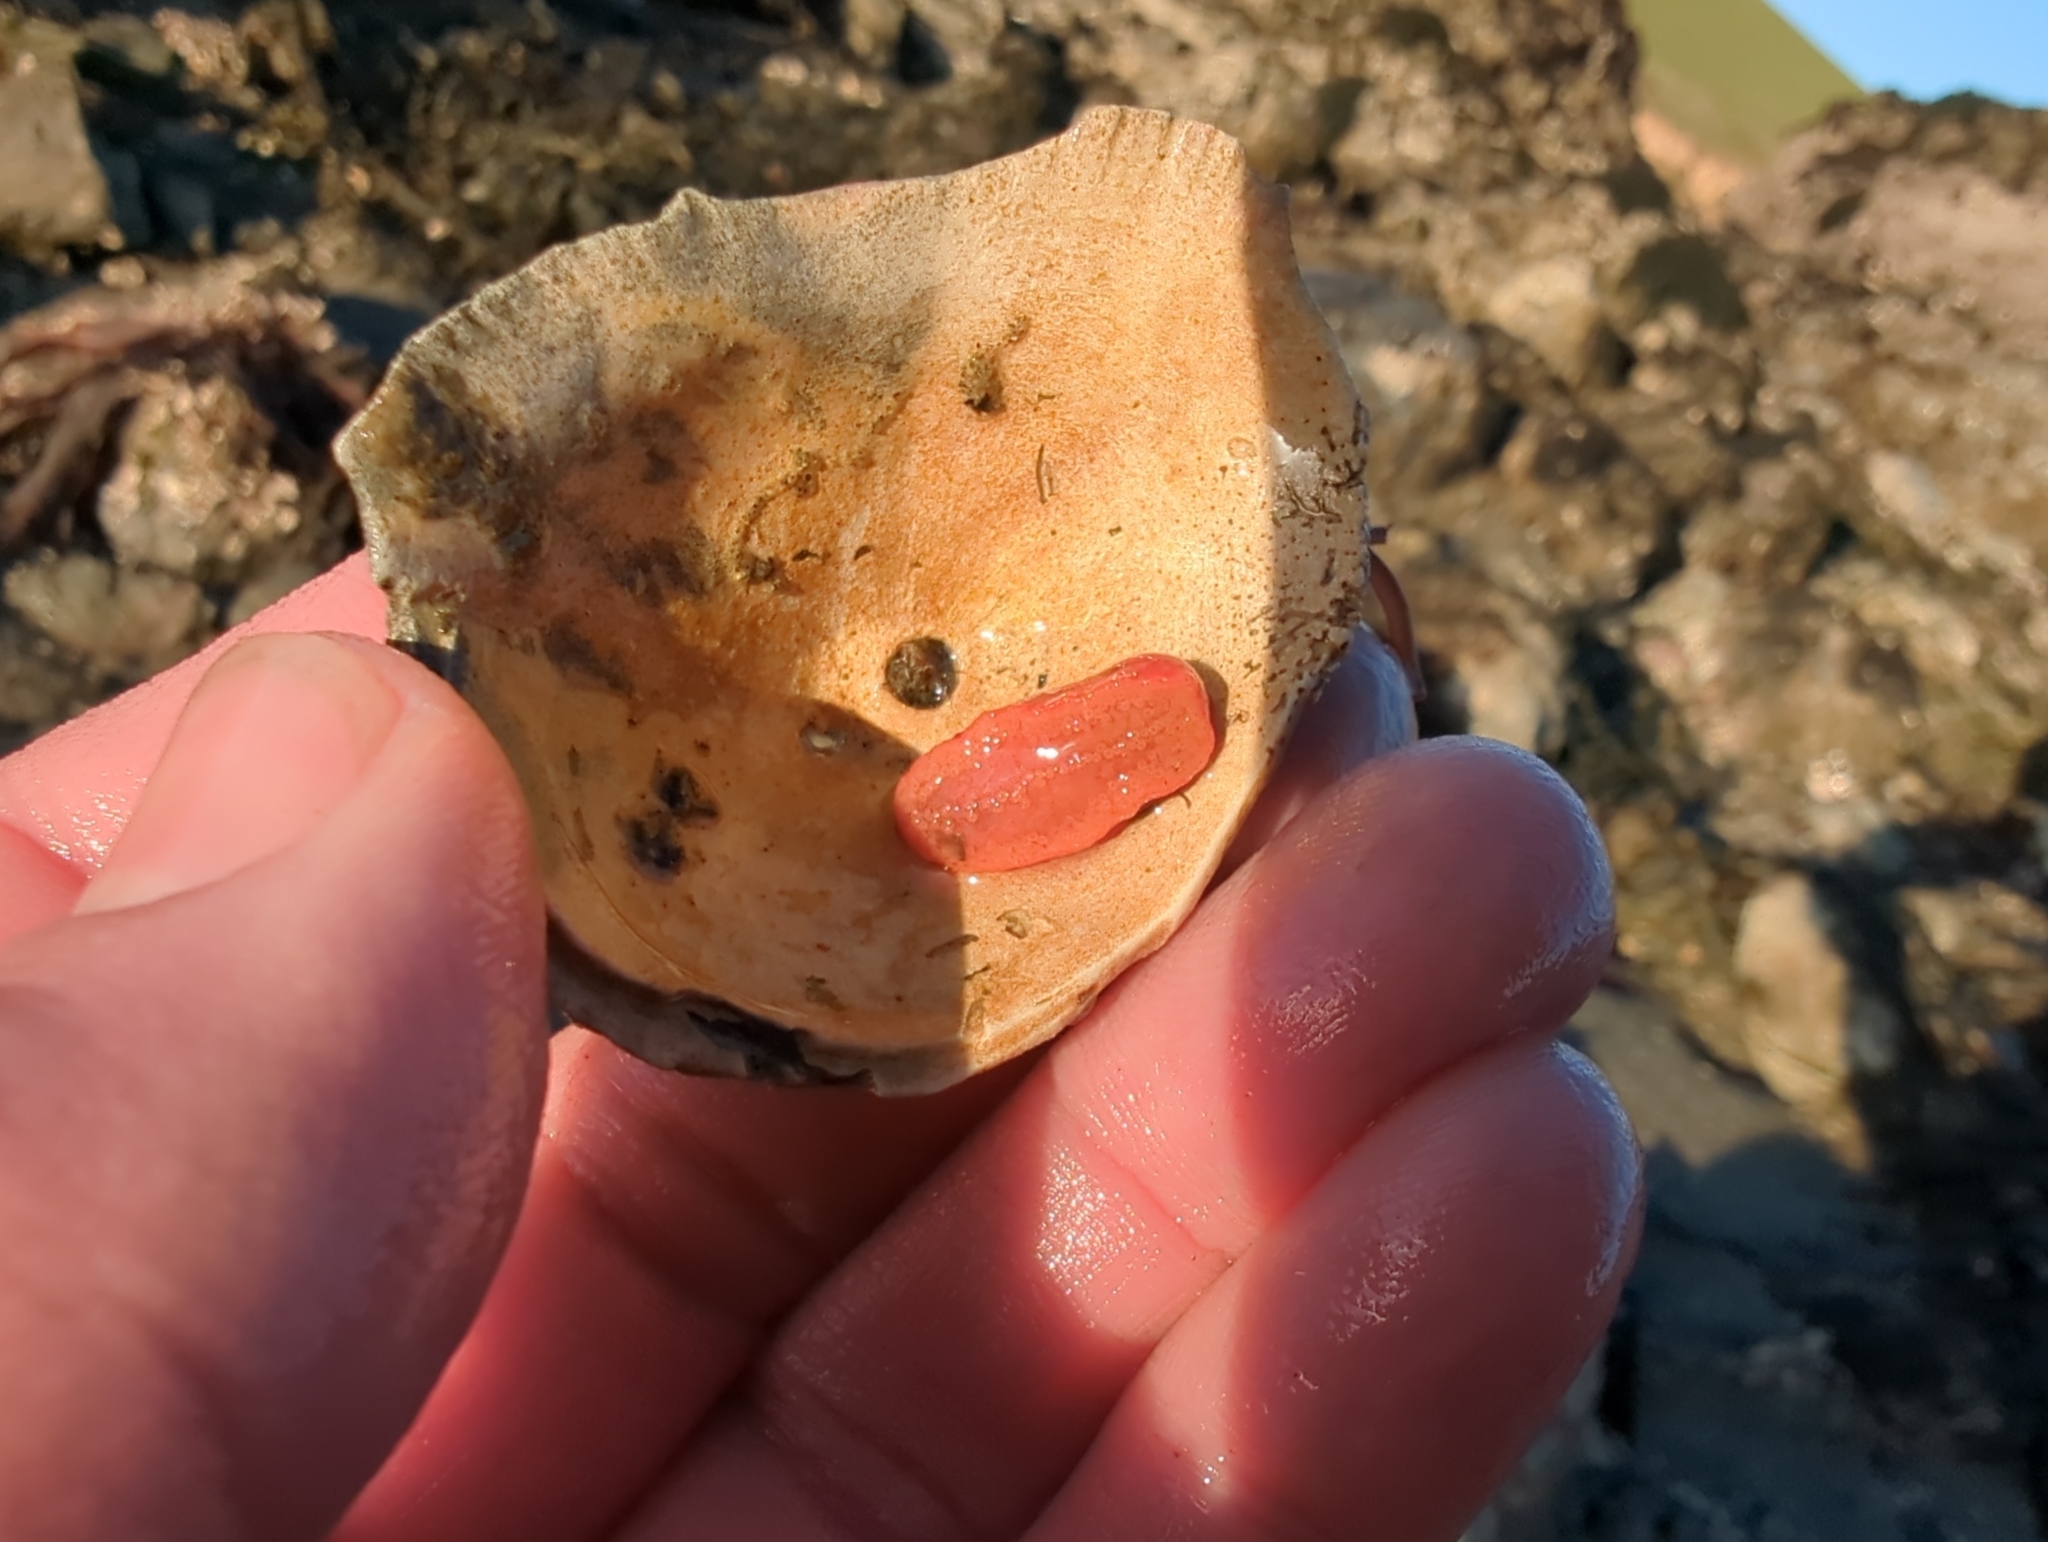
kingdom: Animalia
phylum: Echinodermata
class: Holothuroidea
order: Dendrochirotida
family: Psolidae
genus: Lissothuria
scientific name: Lissothuria nutriens
